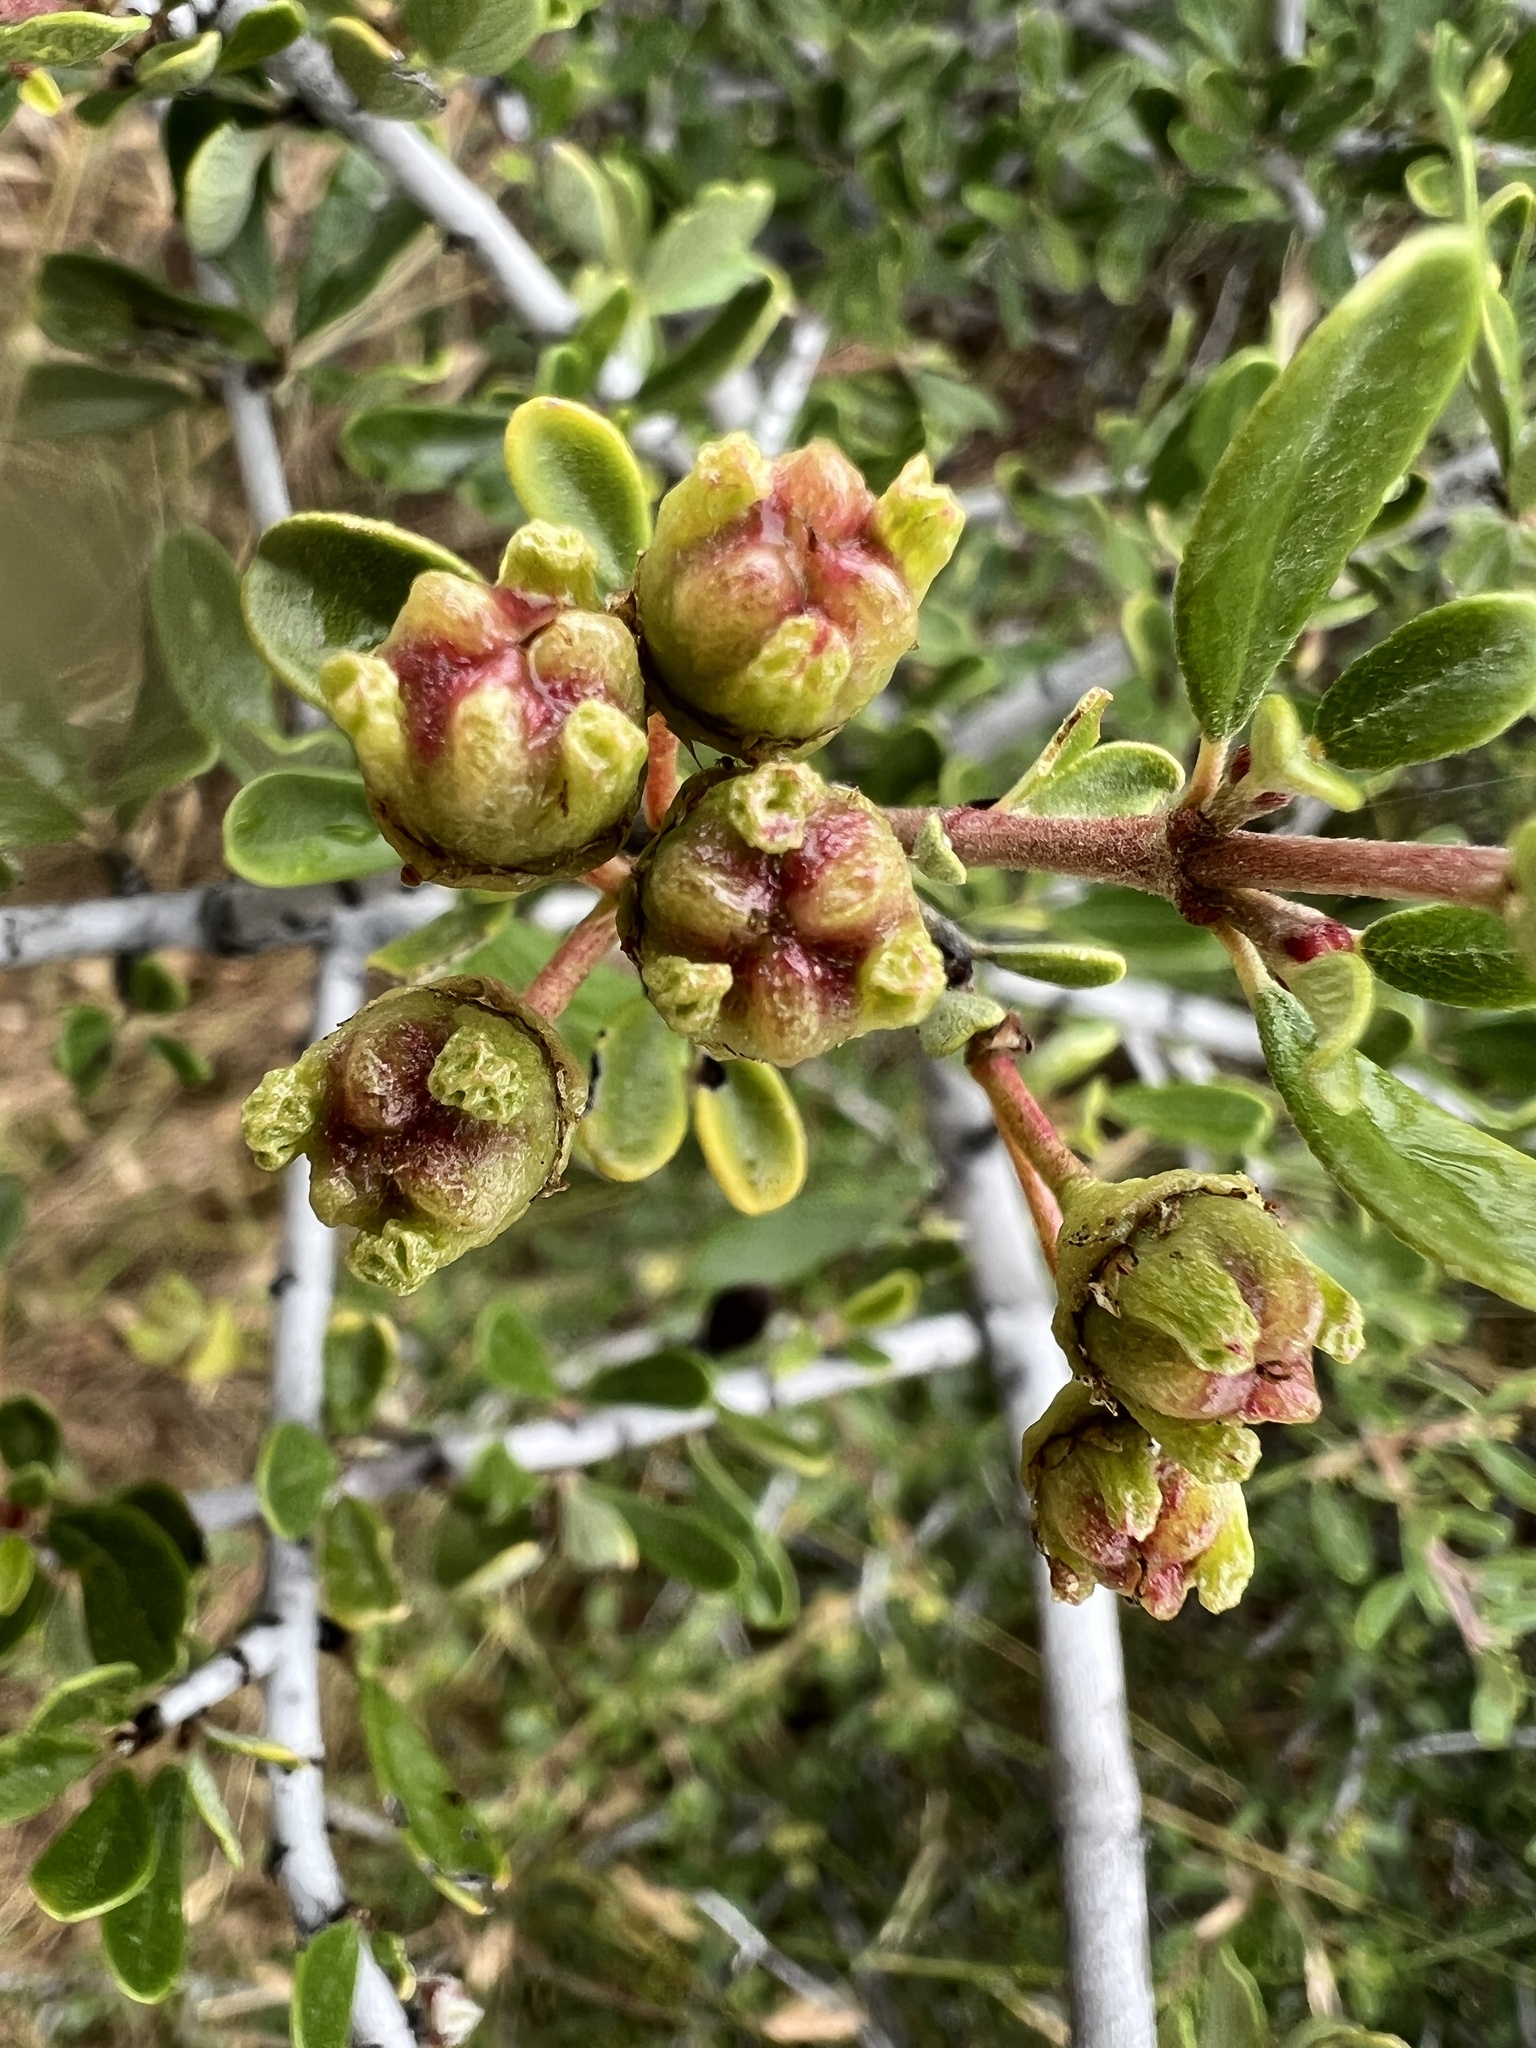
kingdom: Plantae
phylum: Tracheophyta
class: Magnoliopsida
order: Rosales
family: Rhamnaceae
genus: Ceanothus
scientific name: Ceanothus cuneatus
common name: Cuneate ceanothus
